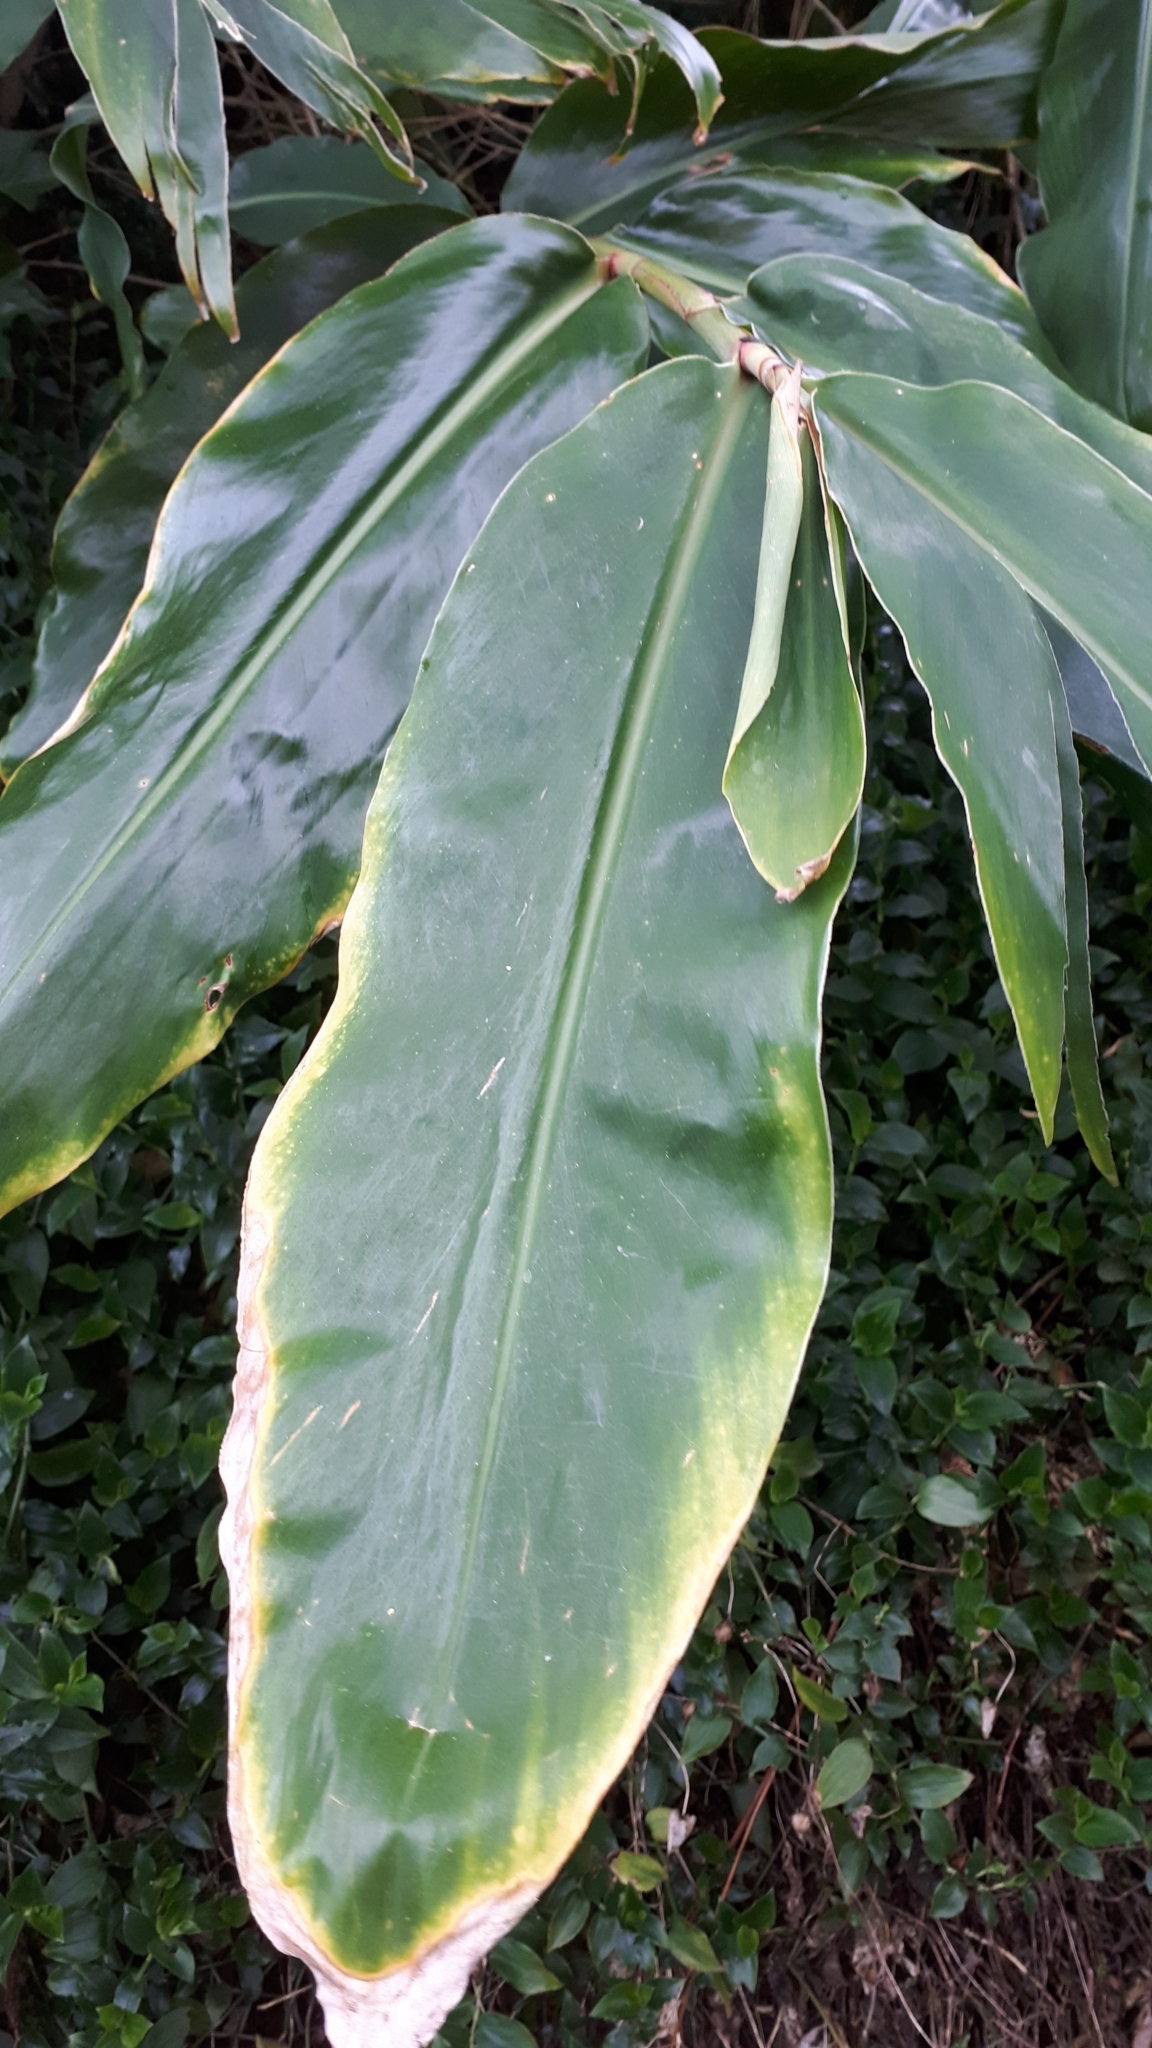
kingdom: Plantae
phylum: Tracheophyta
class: Liliopsida
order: Zingiberales
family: Zingiberaceae
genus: Hedychium
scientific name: Hedychium gardnerianum
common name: Himalayan ginger
